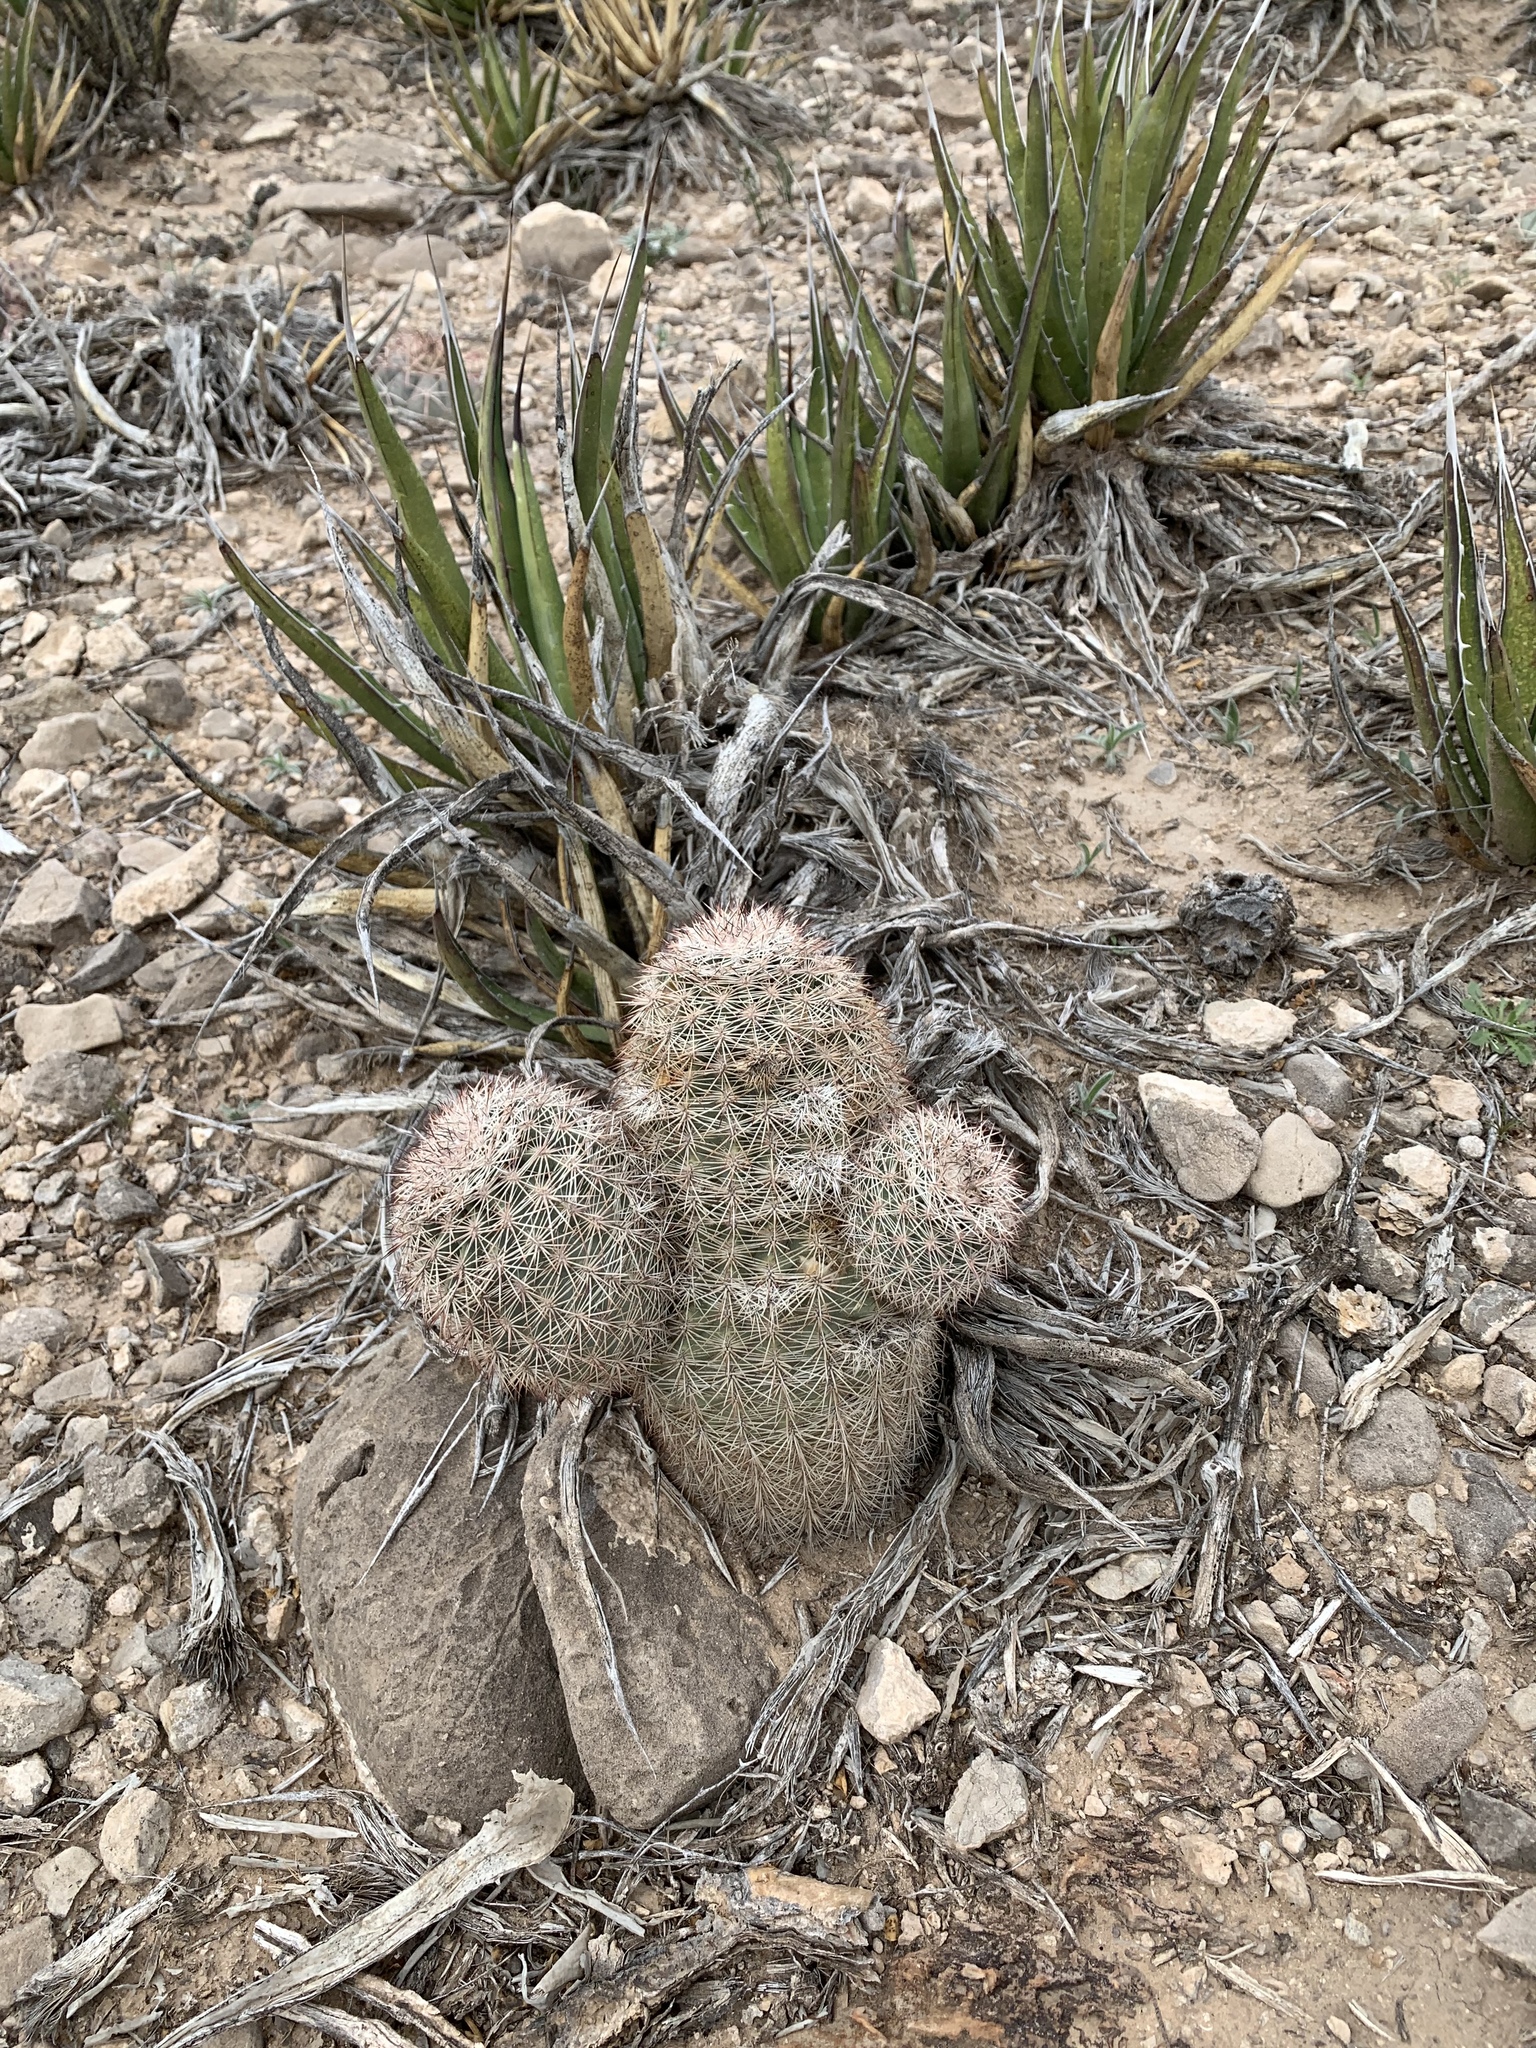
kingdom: Plantae
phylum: Tracheophyta
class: Magnoliopsida
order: Caryophyllales
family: Cactaceae
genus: Echinocereus
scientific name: Echinocereus dasyacanthus
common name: Spiny hedgehog cactus
